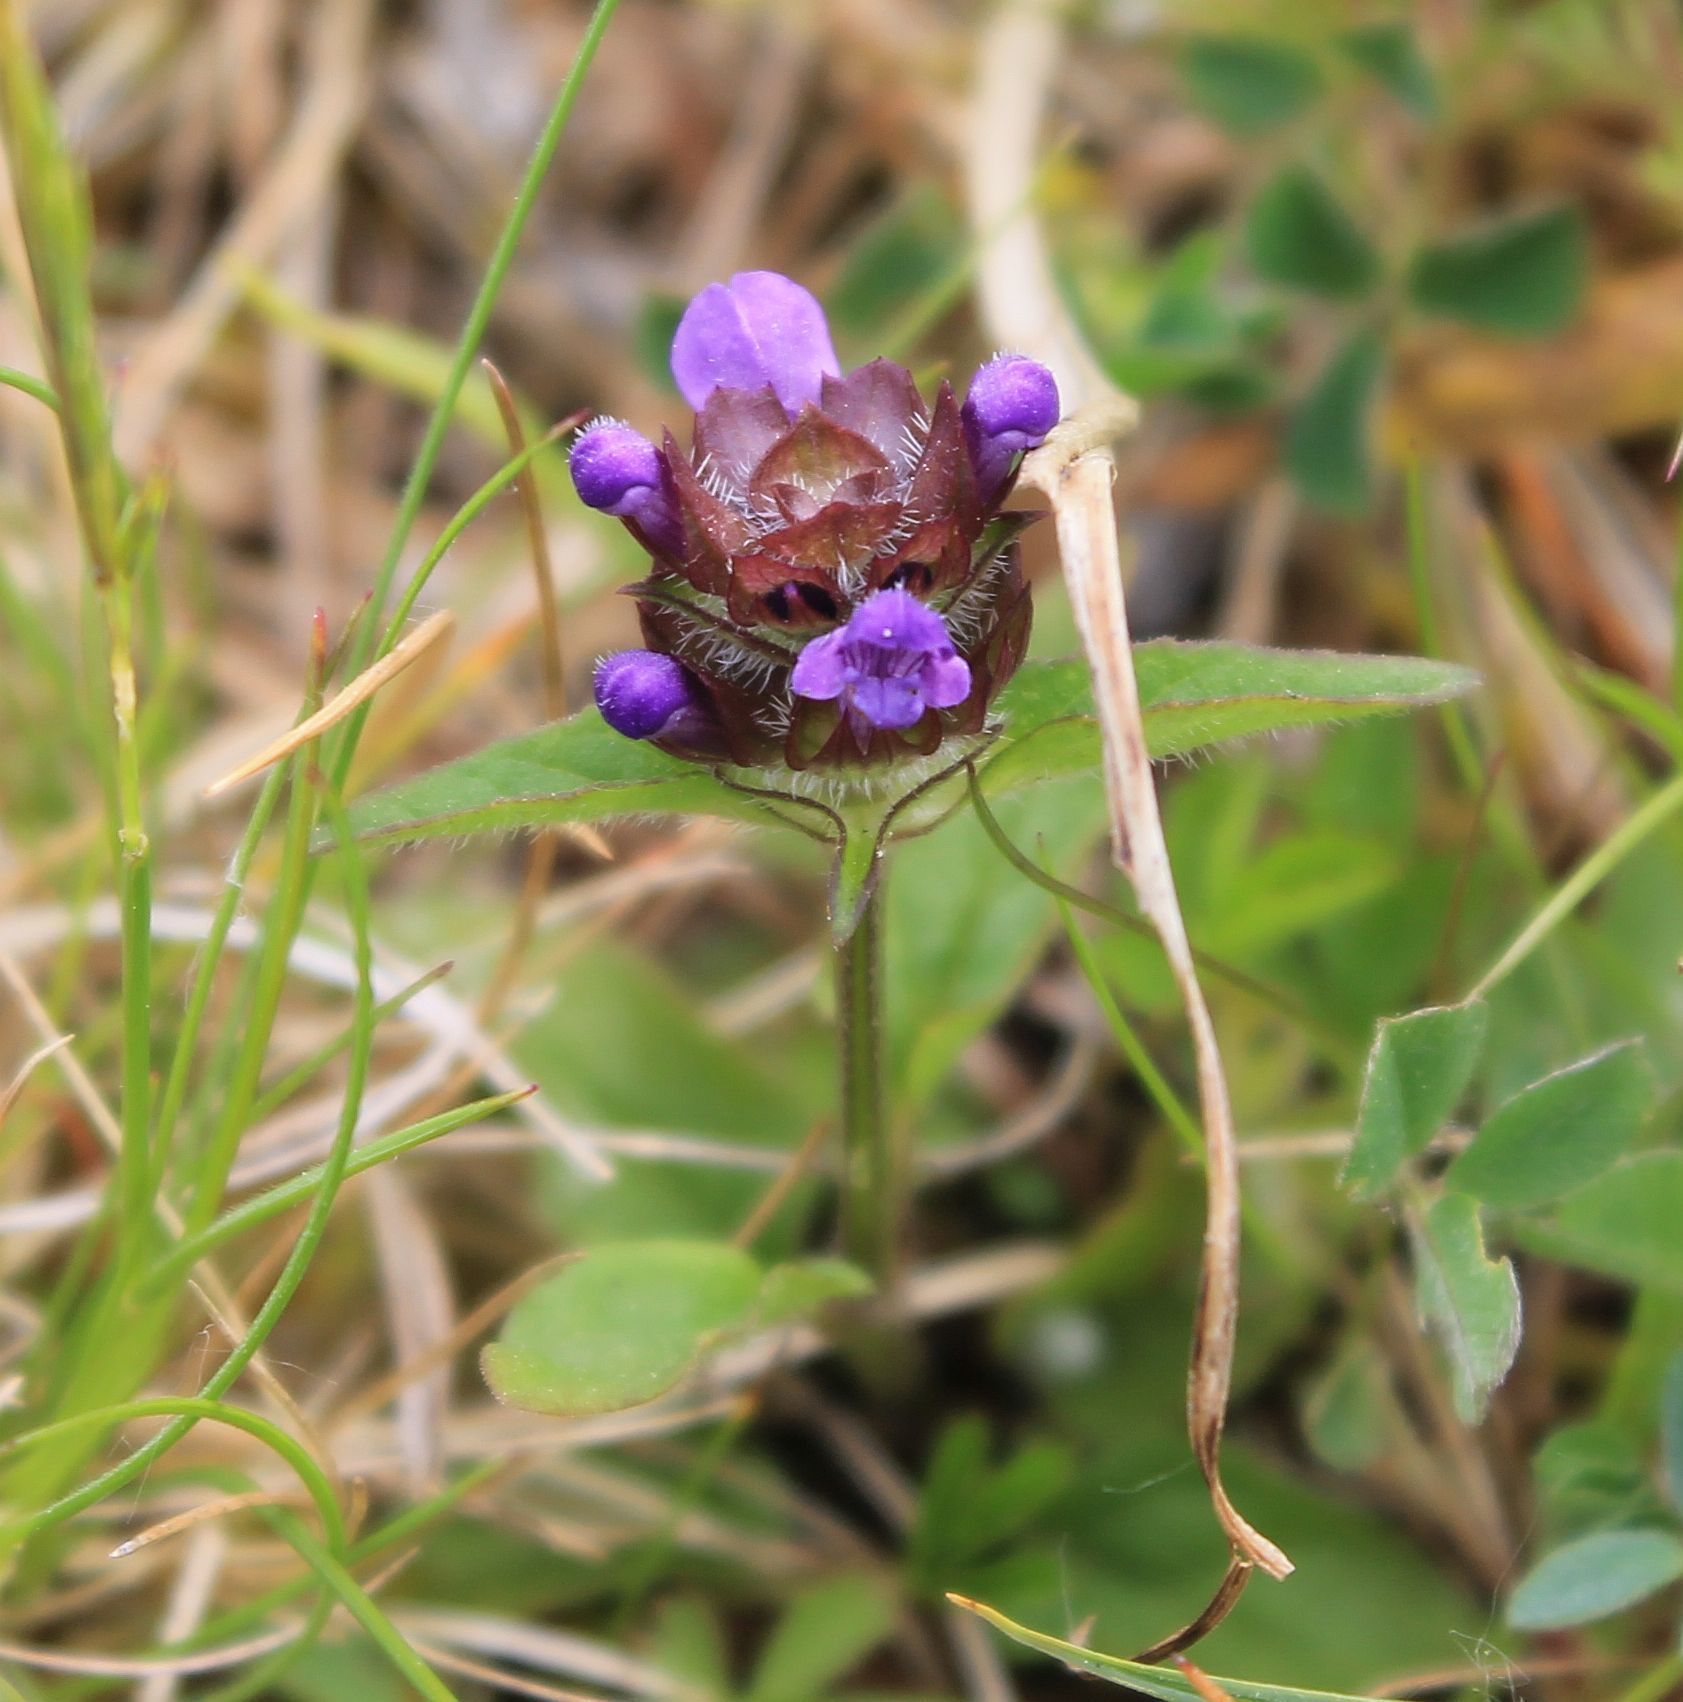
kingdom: Plantae
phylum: Tracheophyta
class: Magnoliopsida
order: Lamiales
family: Lamiaceae
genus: Prunella
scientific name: Prunella vulgaris
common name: Heal-all
